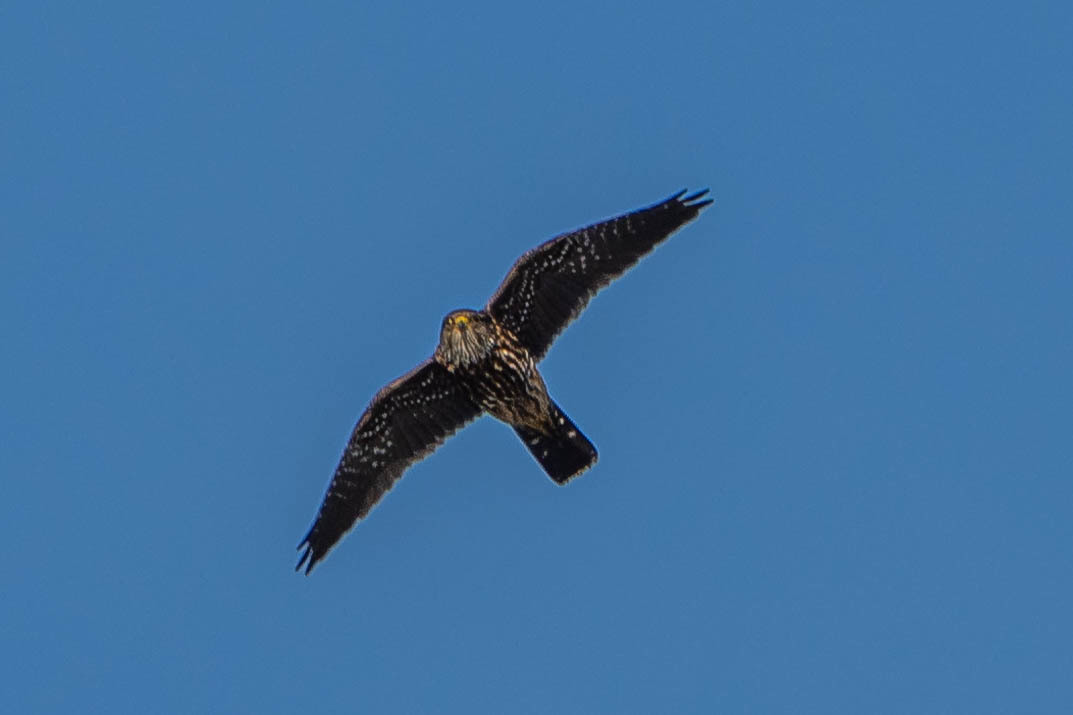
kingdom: Animalia
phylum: Chordata
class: Aves
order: Falconiformes
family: Falconidae
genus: Falco
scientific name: Falco columbarius
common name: Merlin
